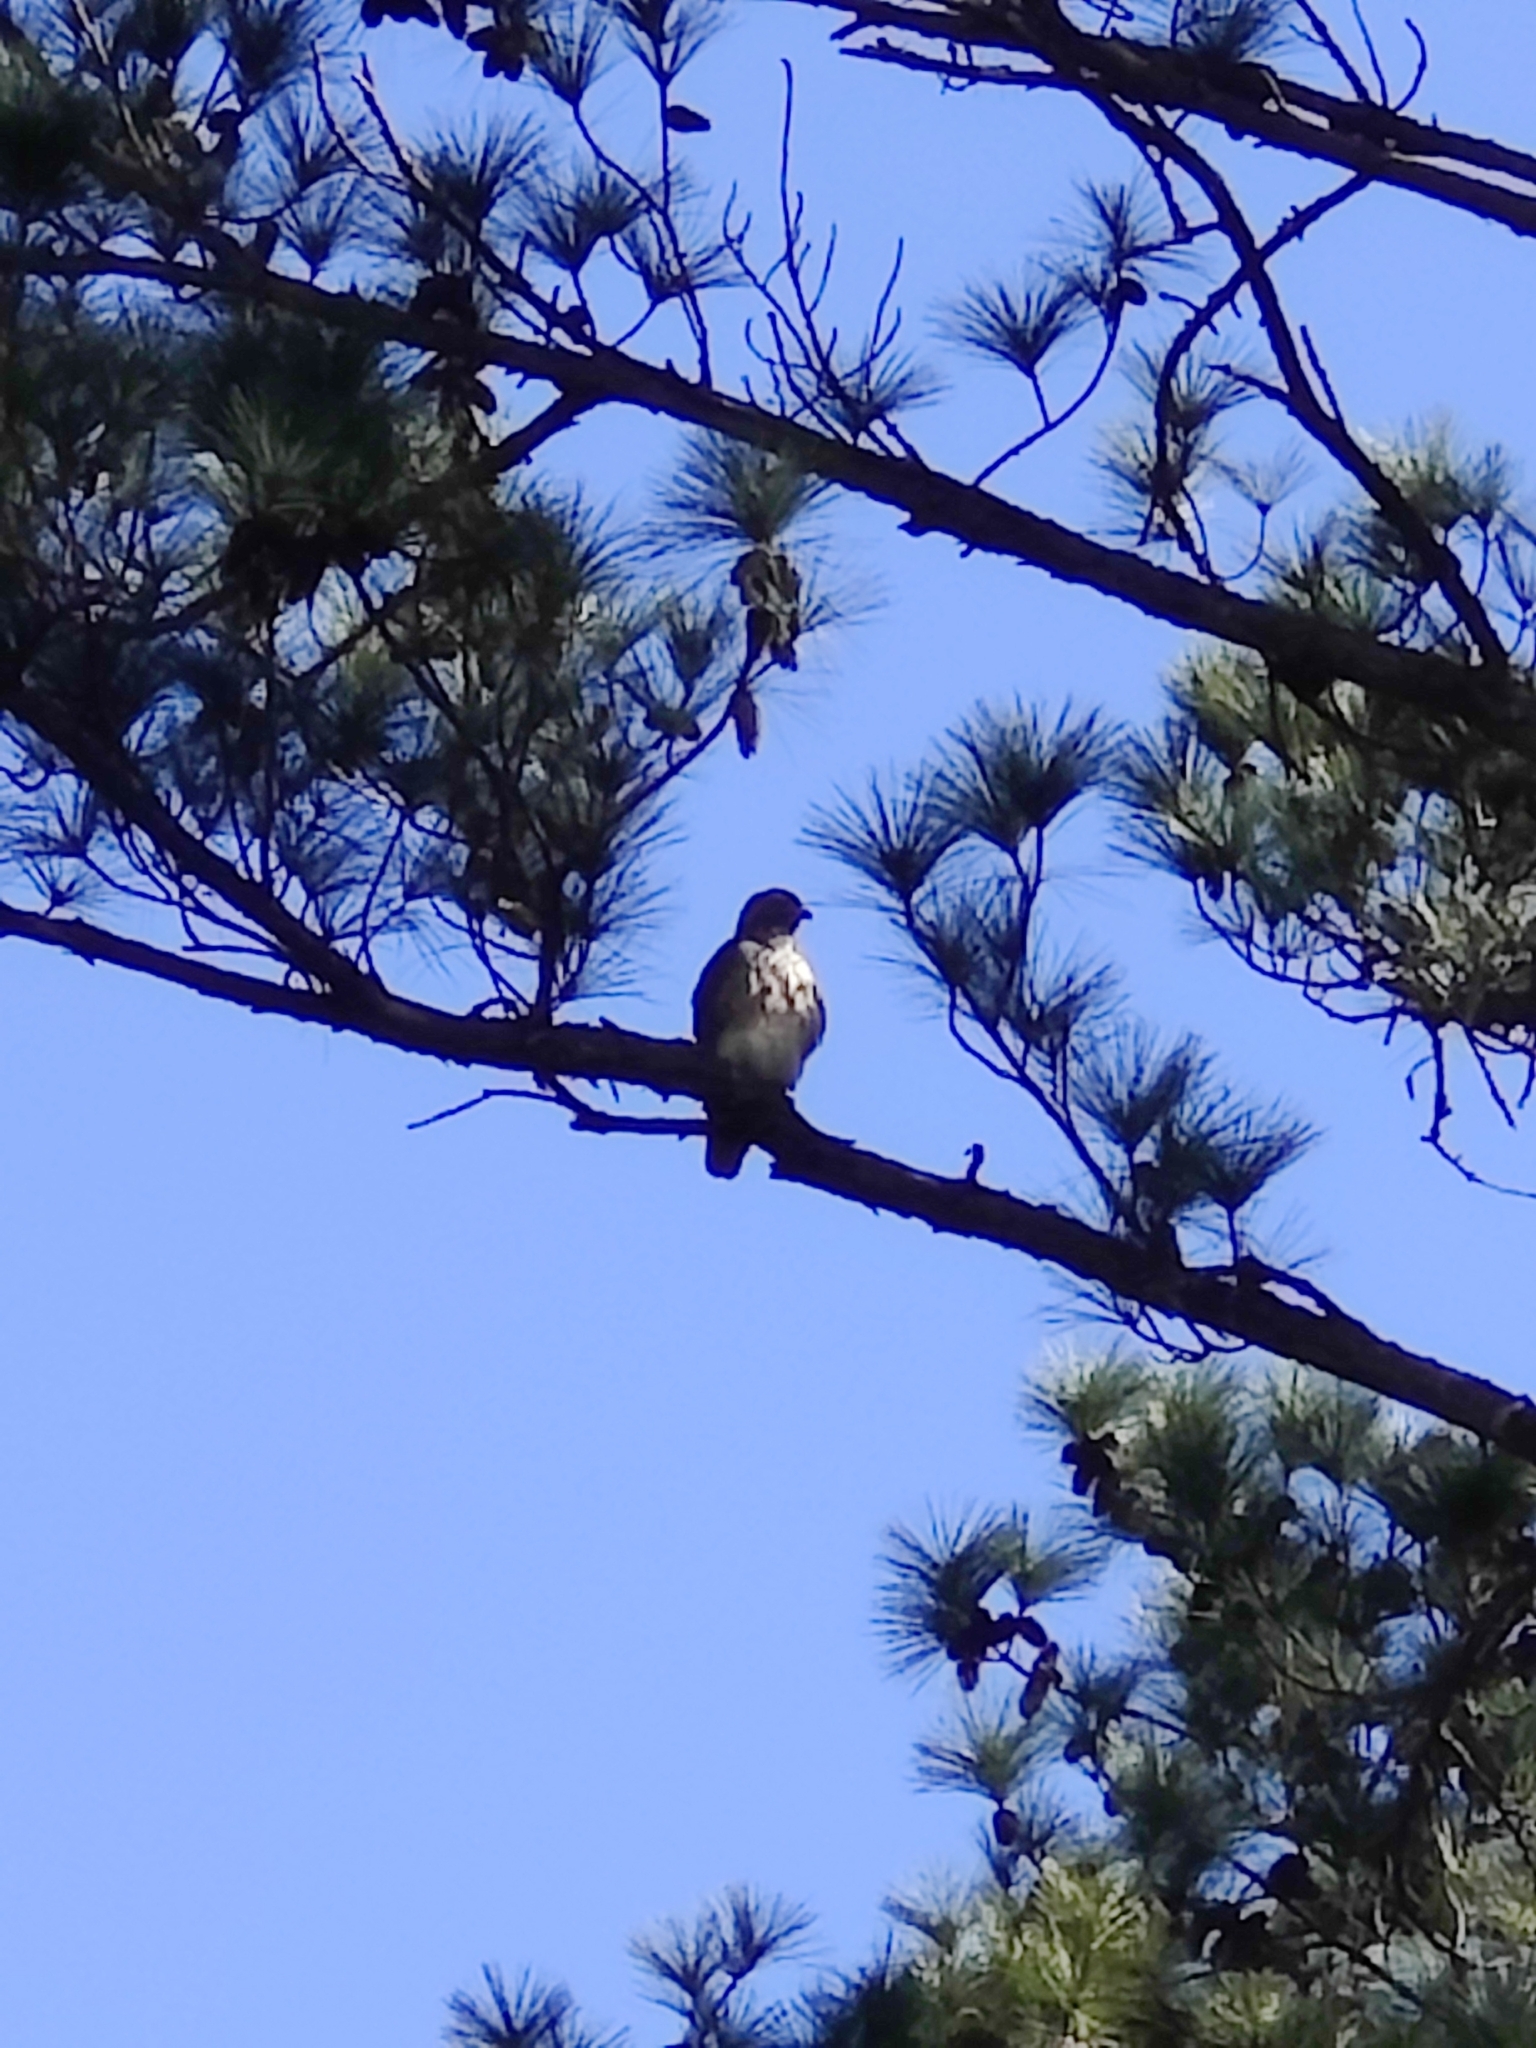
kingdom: Animalia
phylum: Chordata
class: Aves
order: Accipitriformes
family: Accipitridae
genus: Buteo
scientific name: Buteo jamaicensis
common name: Red-tailed hawk
